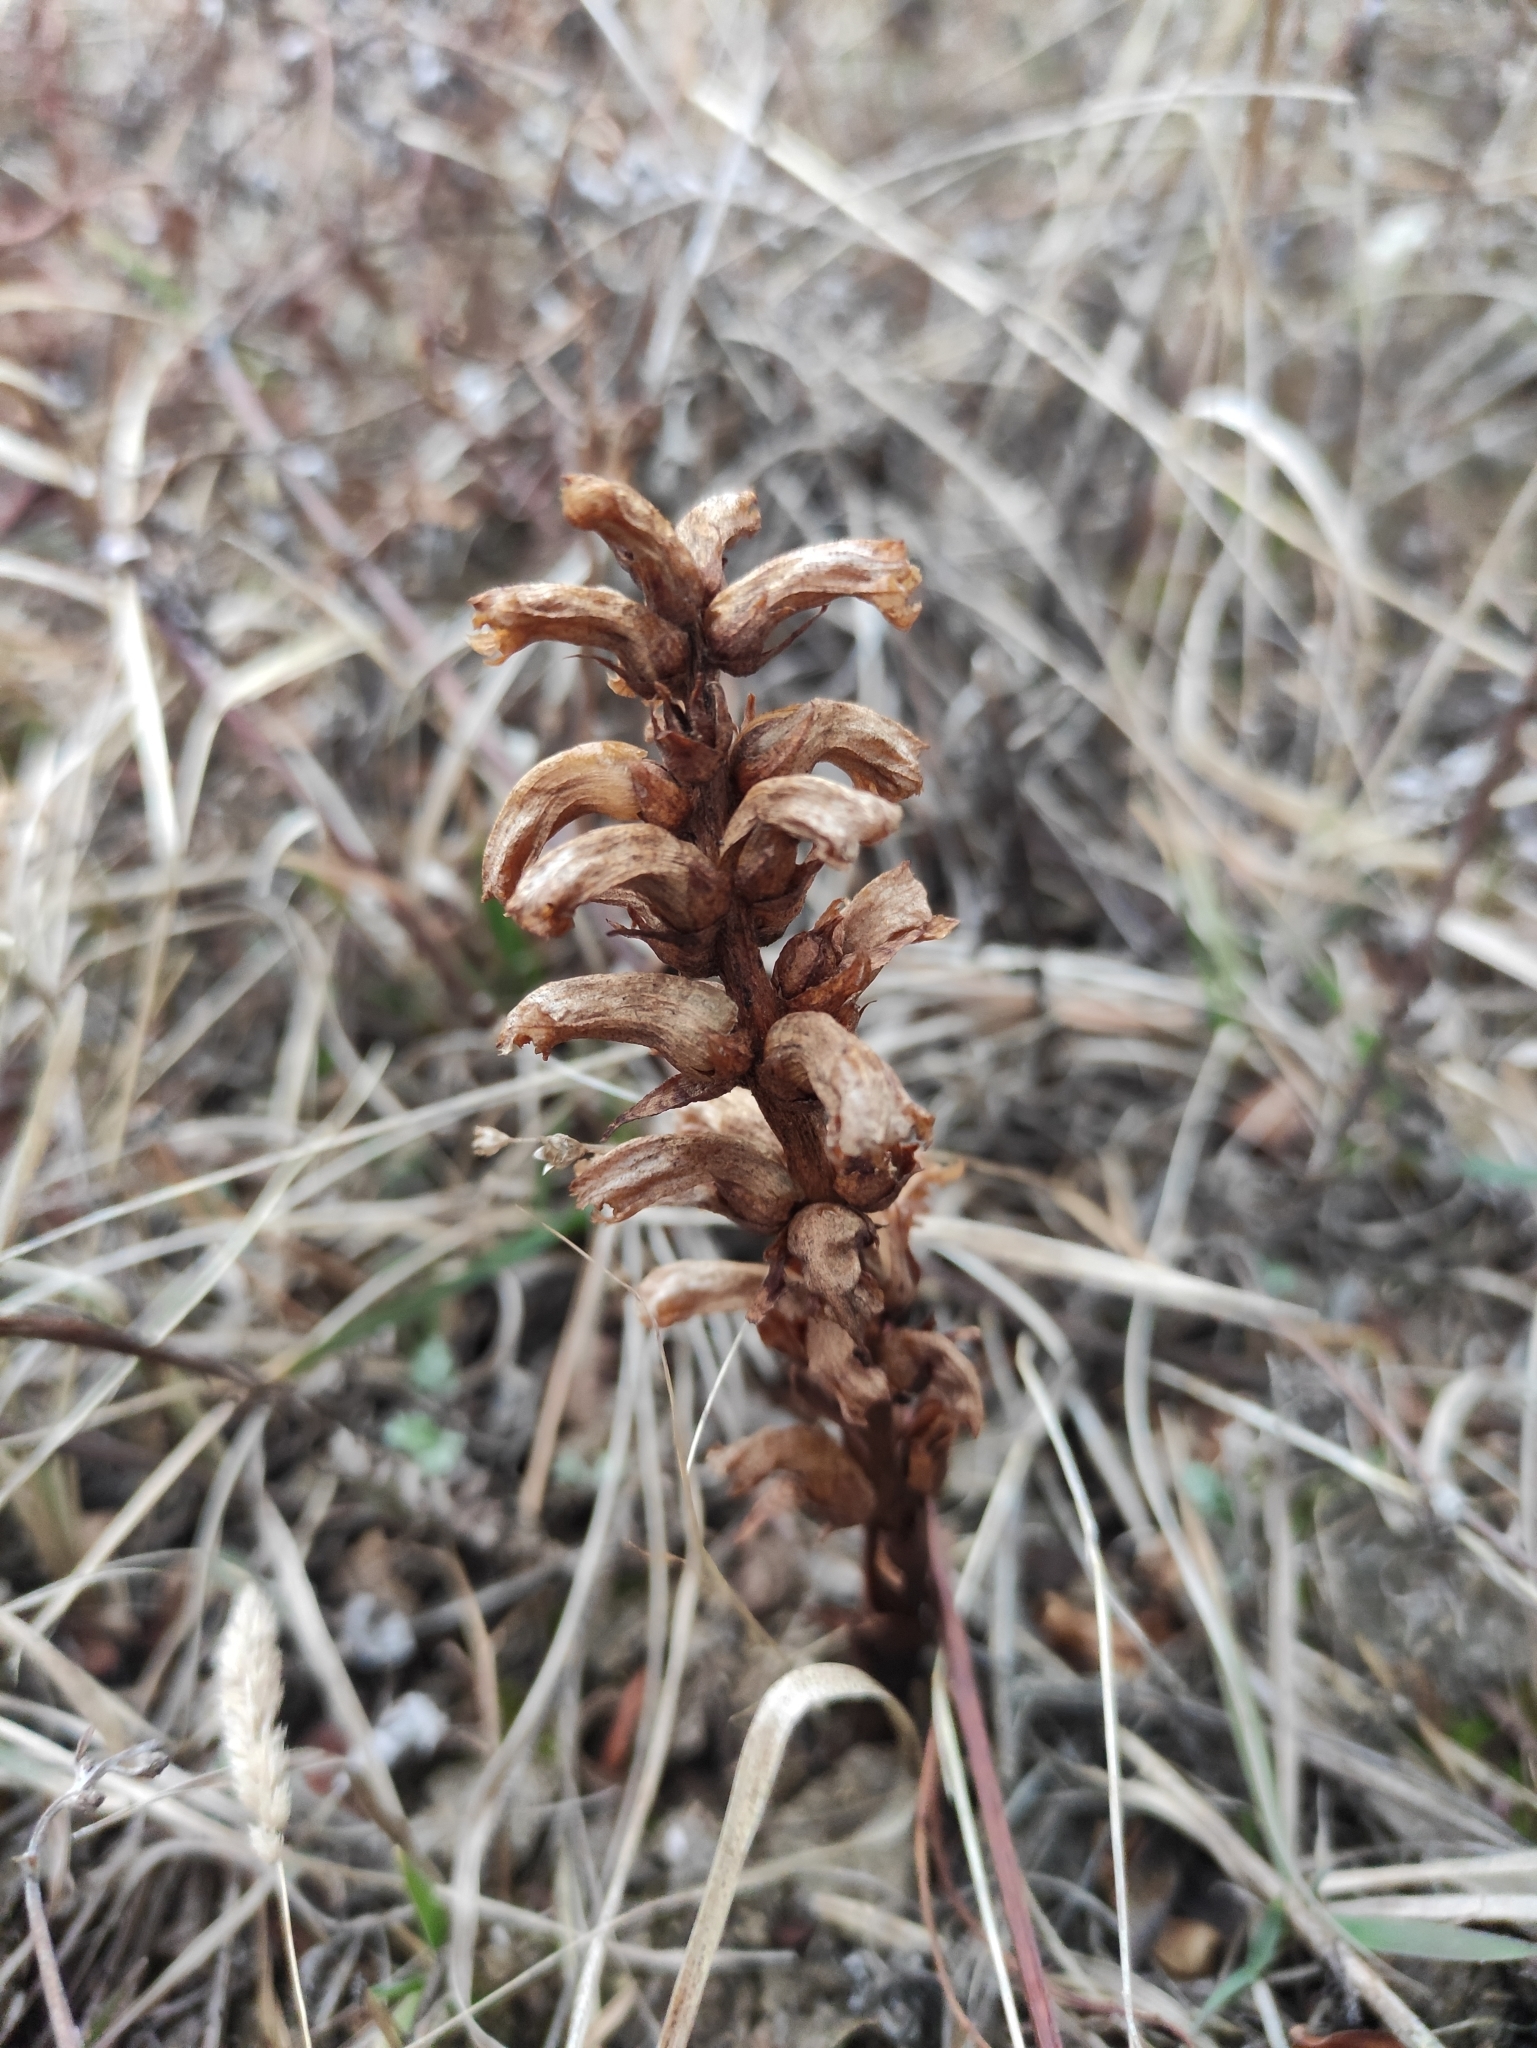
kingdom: Plantae
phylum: Tracheophyta
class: Magnoliopsida
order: Lamiales
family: Orobanchaceae
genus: Orobanche
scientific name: Orobanche coerulescens
